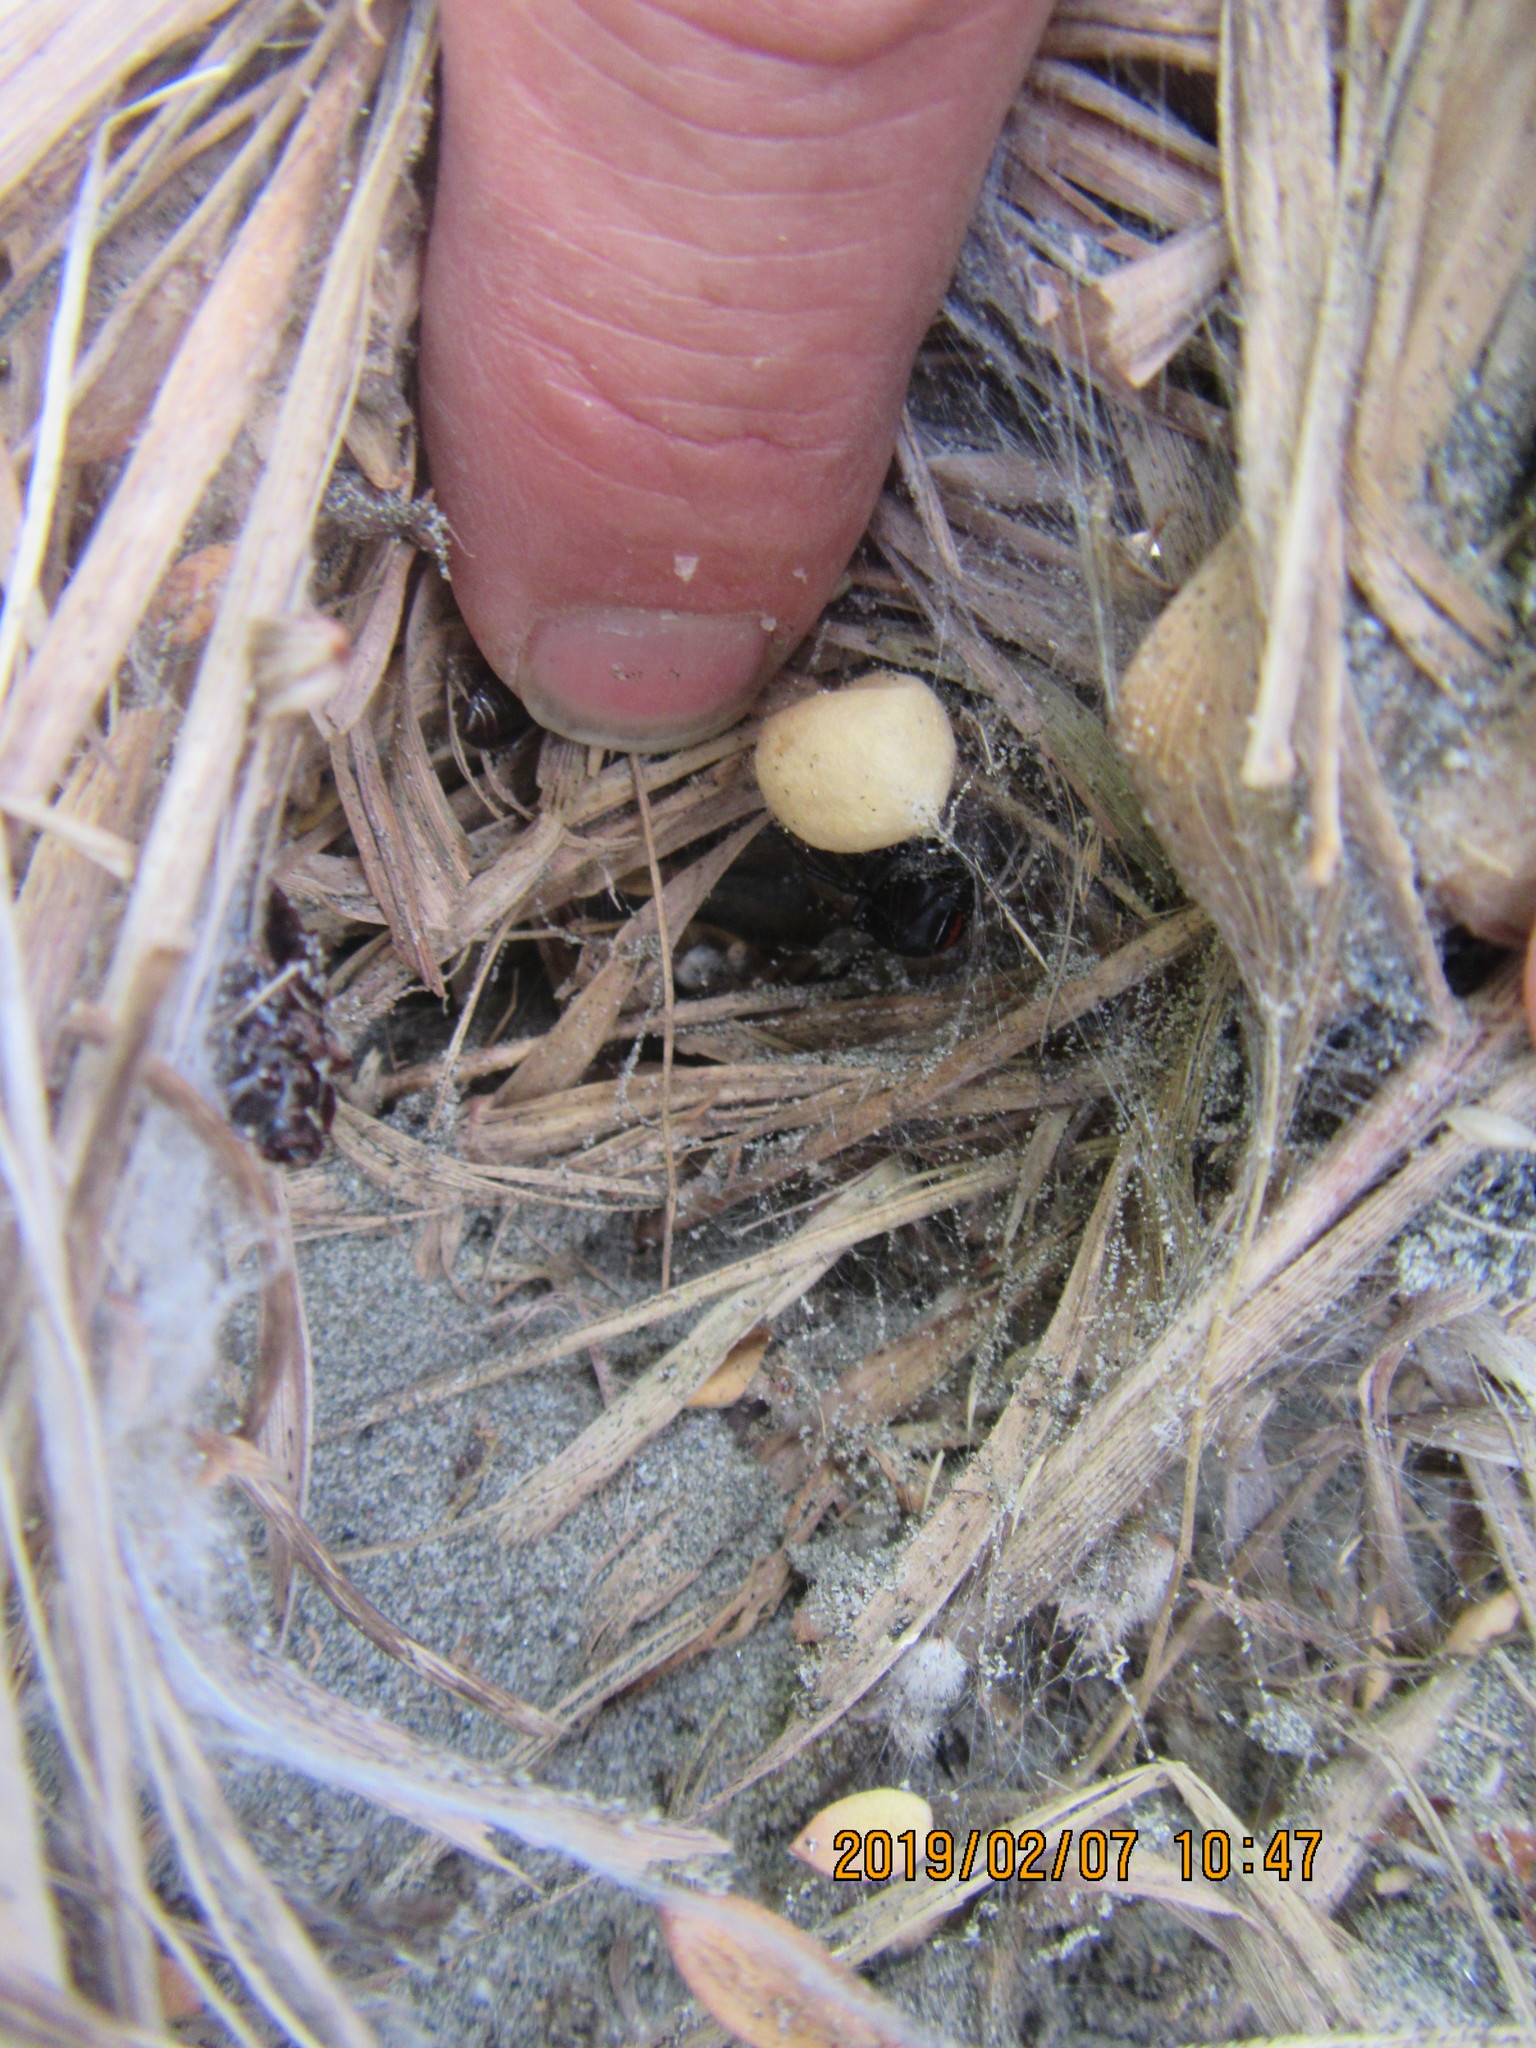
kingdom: Plantae
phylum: Tracheophyta
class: Magnoliopsida
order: Malvales
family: Thymelaeaceae
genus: Pimelea
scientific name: Pimelea villosa
